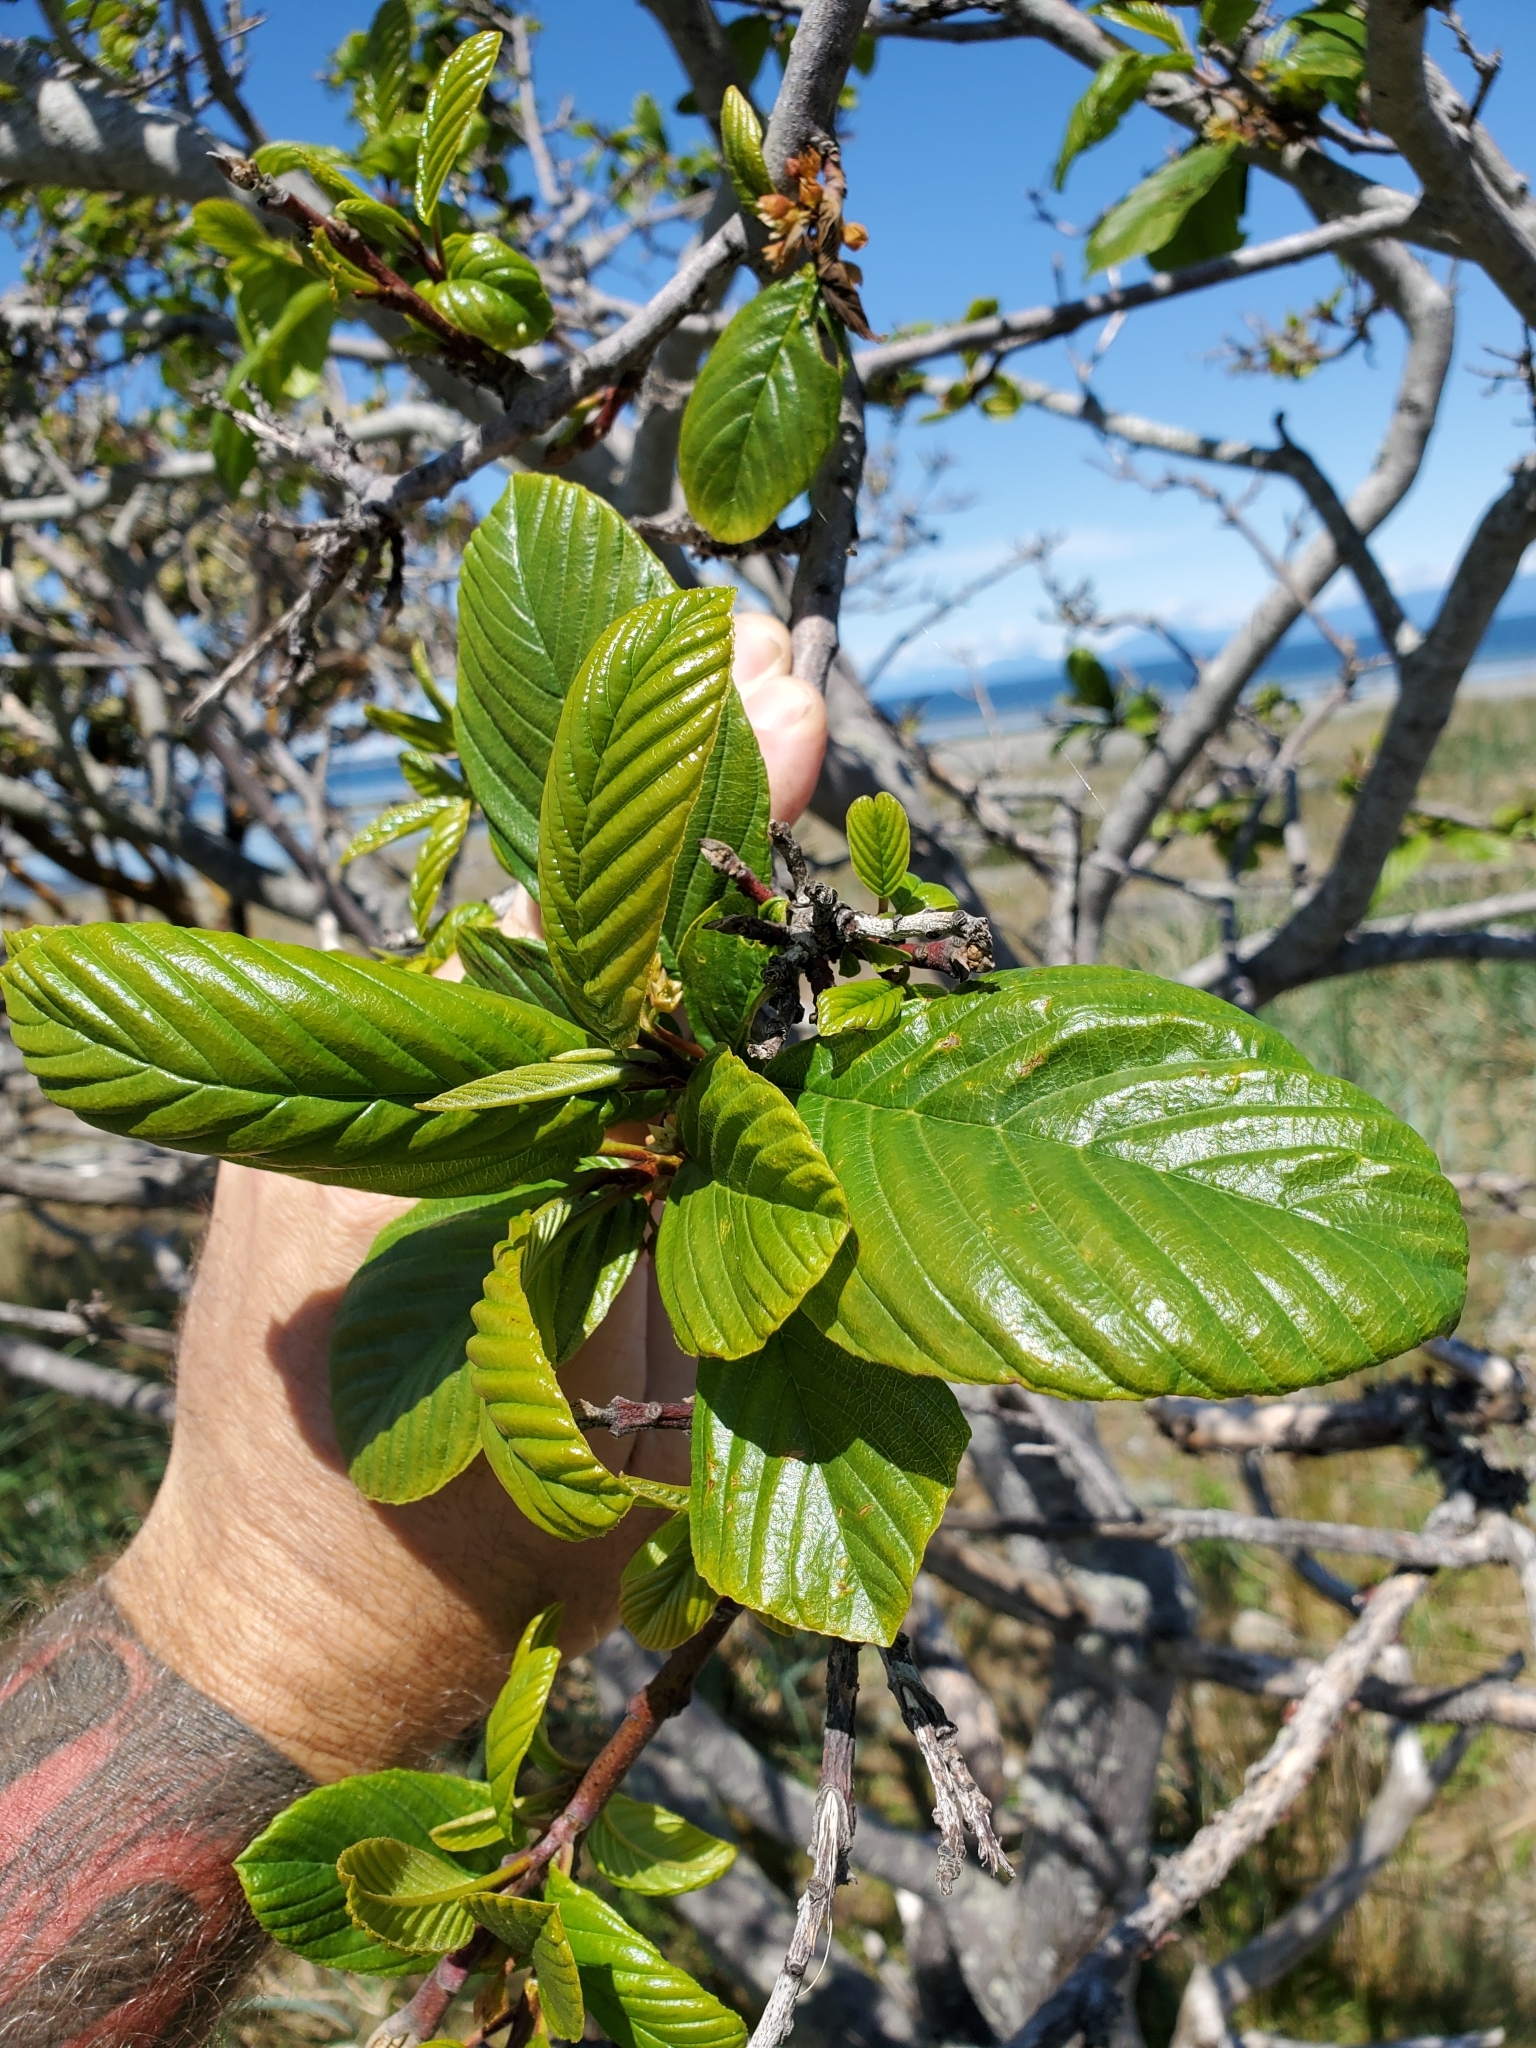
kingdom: Plantae
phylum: Tracheophyta
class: Magnoliopsida
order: Rosales
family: Rhamnaceae
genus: Frangula
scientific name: Frangula purshiana
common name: Cascara buckthorn
